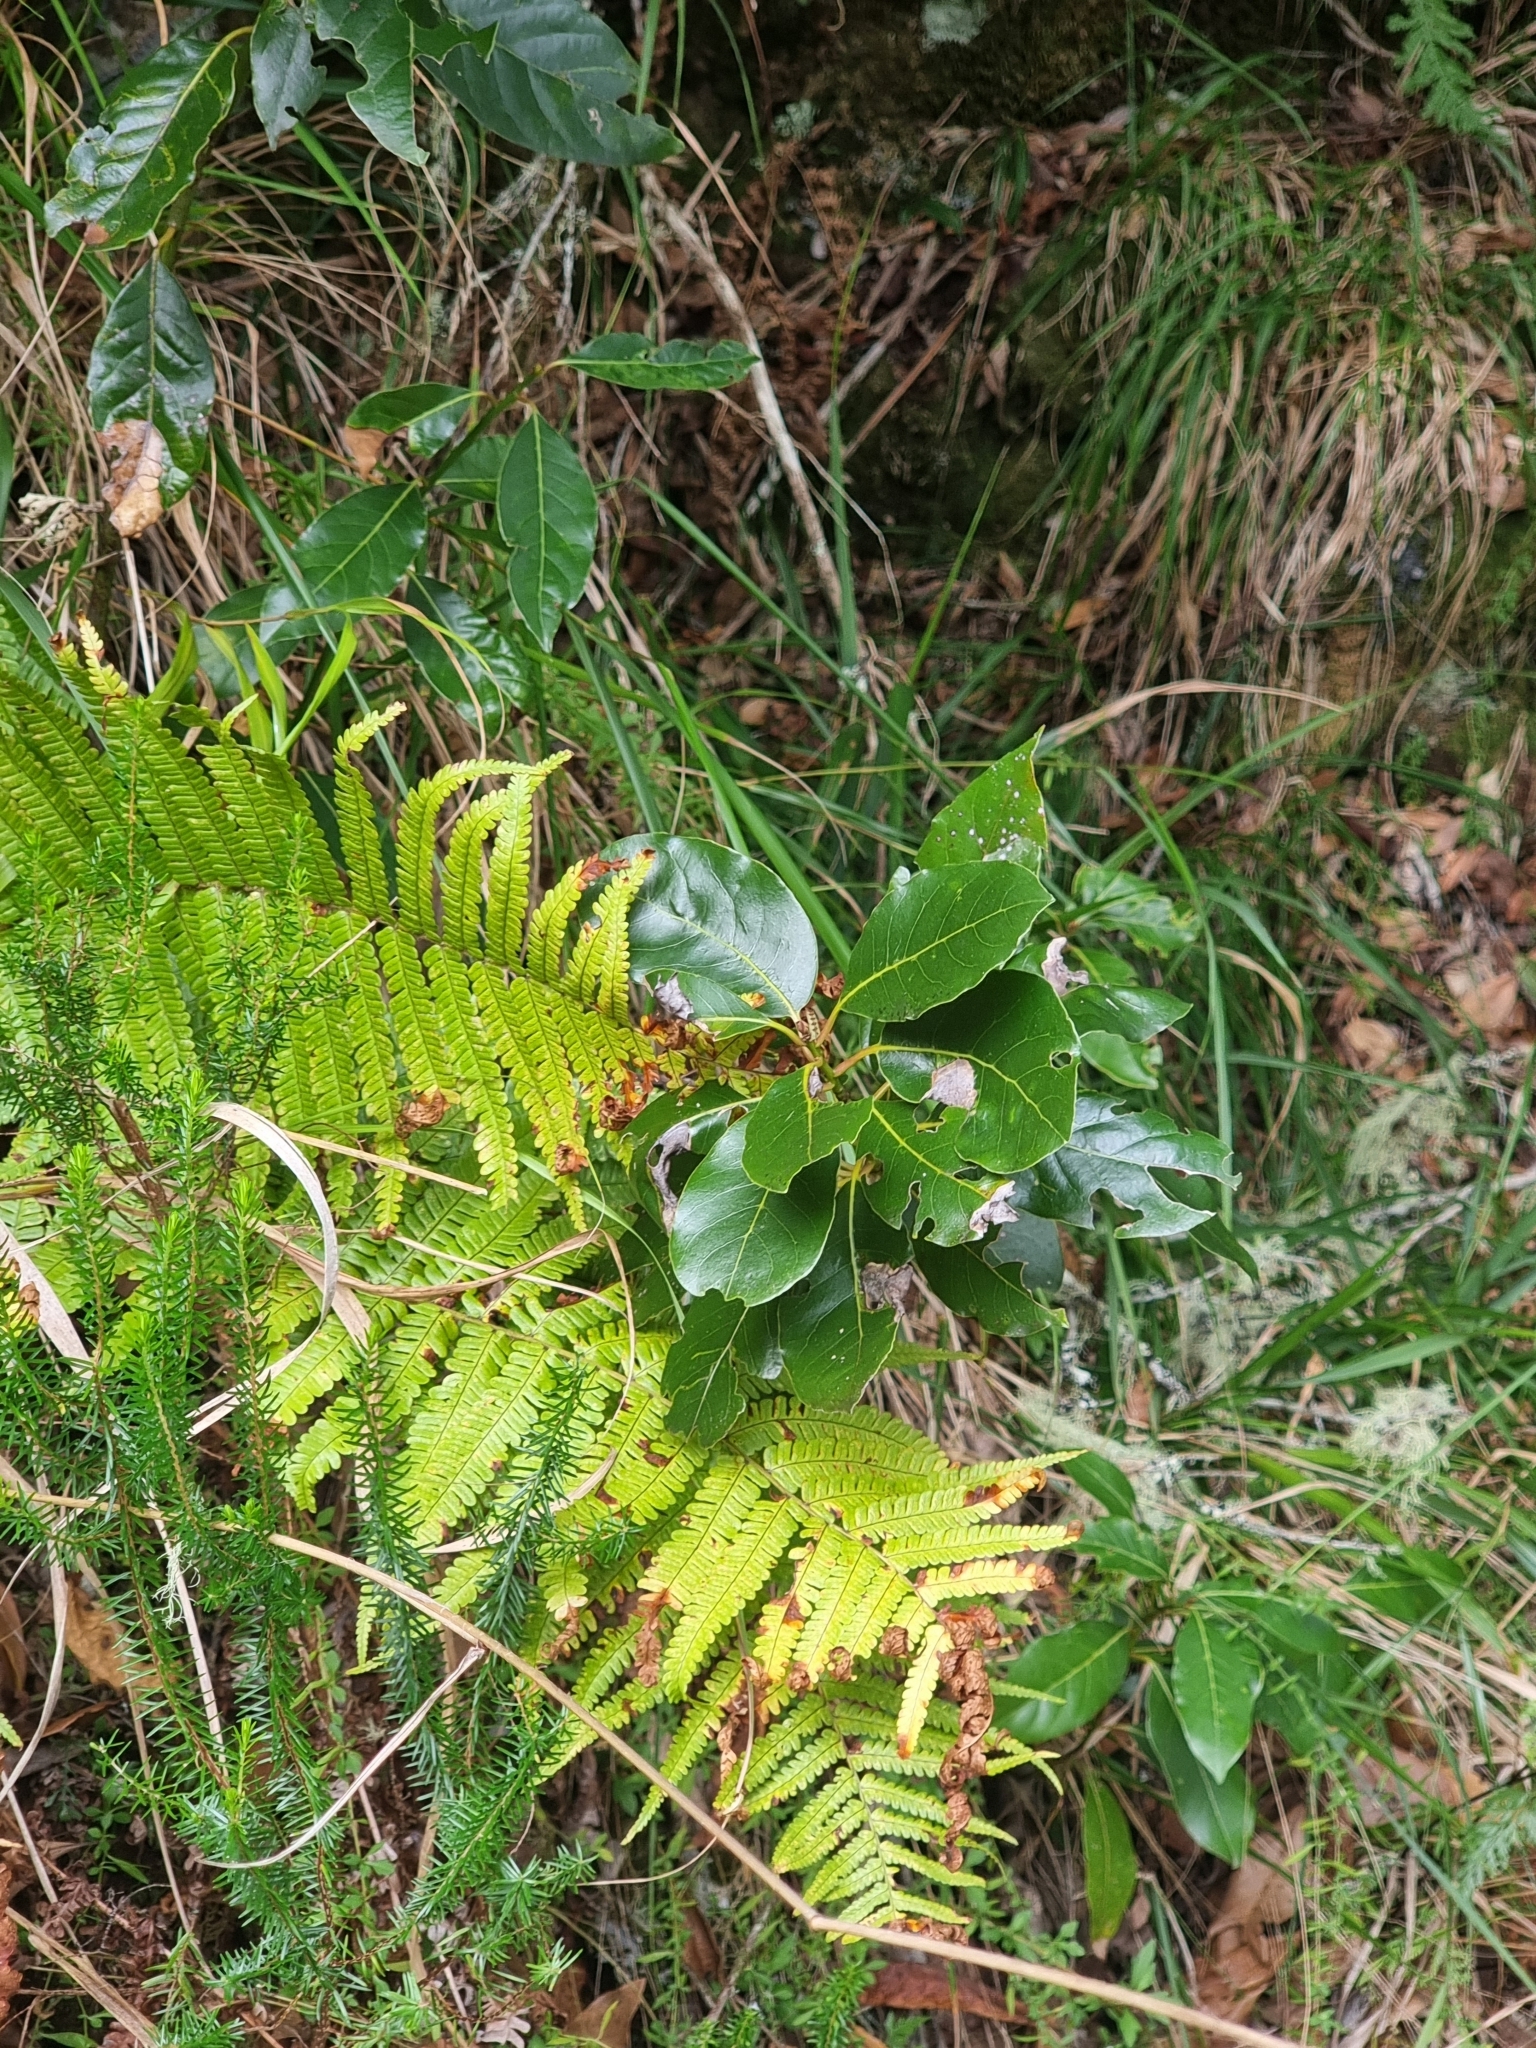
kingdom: Plantae
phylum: Tracheophyta
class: Magnoliopsida
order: Laurales
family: Lauraceae
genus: Laurus
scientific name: Laurus novocanariensis
